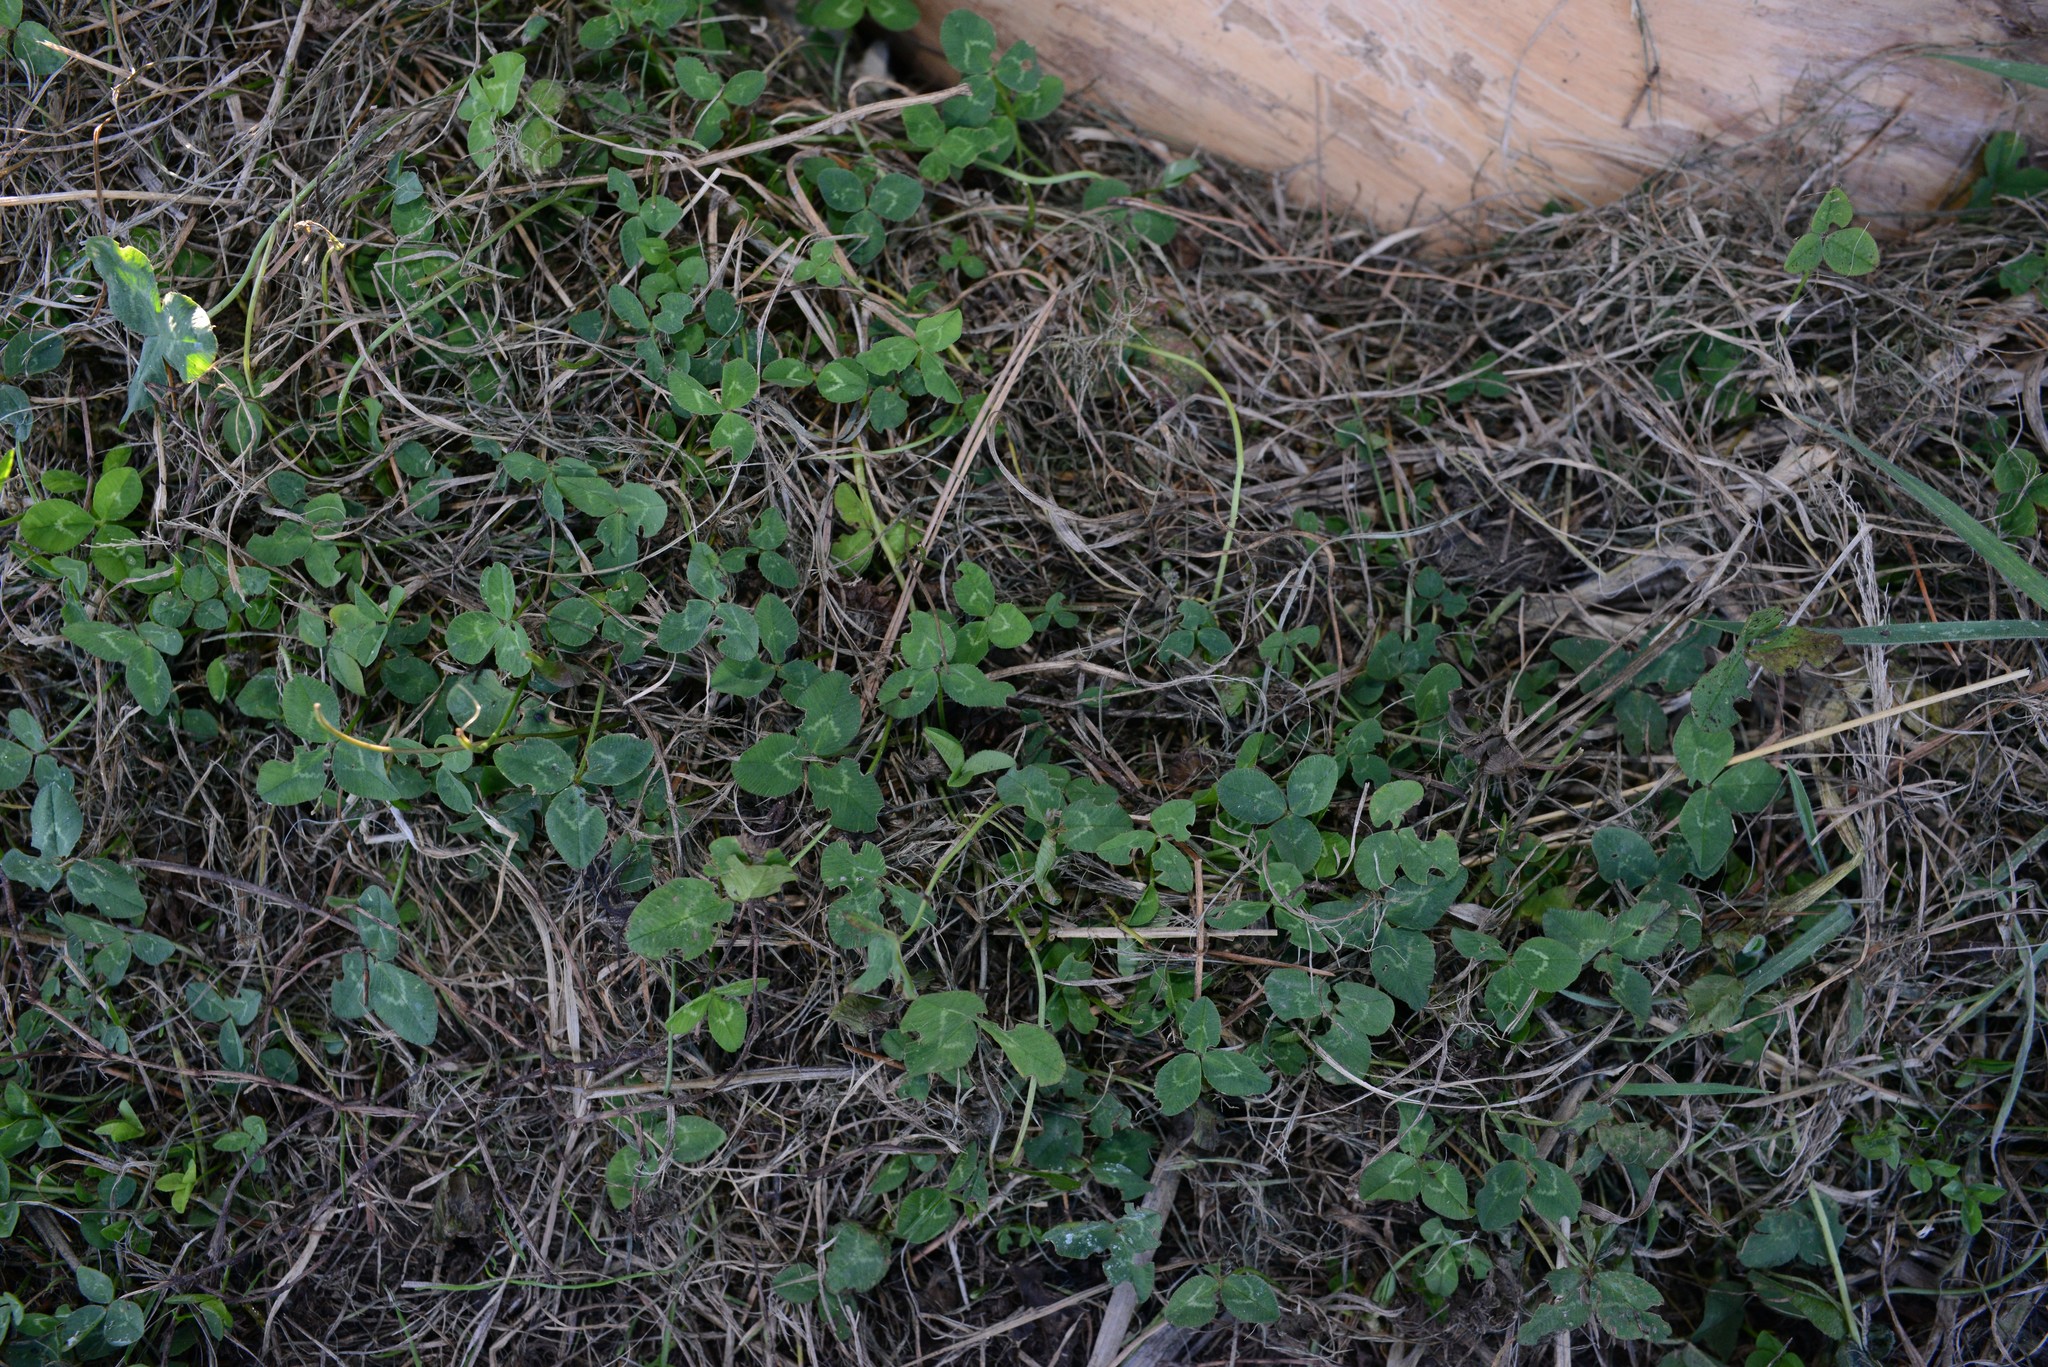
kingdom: Plantae
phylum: Tracheophyta
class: Magnoliopsida
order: Fabales
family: Fabaceae
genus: Trifolium
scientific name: Trifolium repens
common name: White clover
